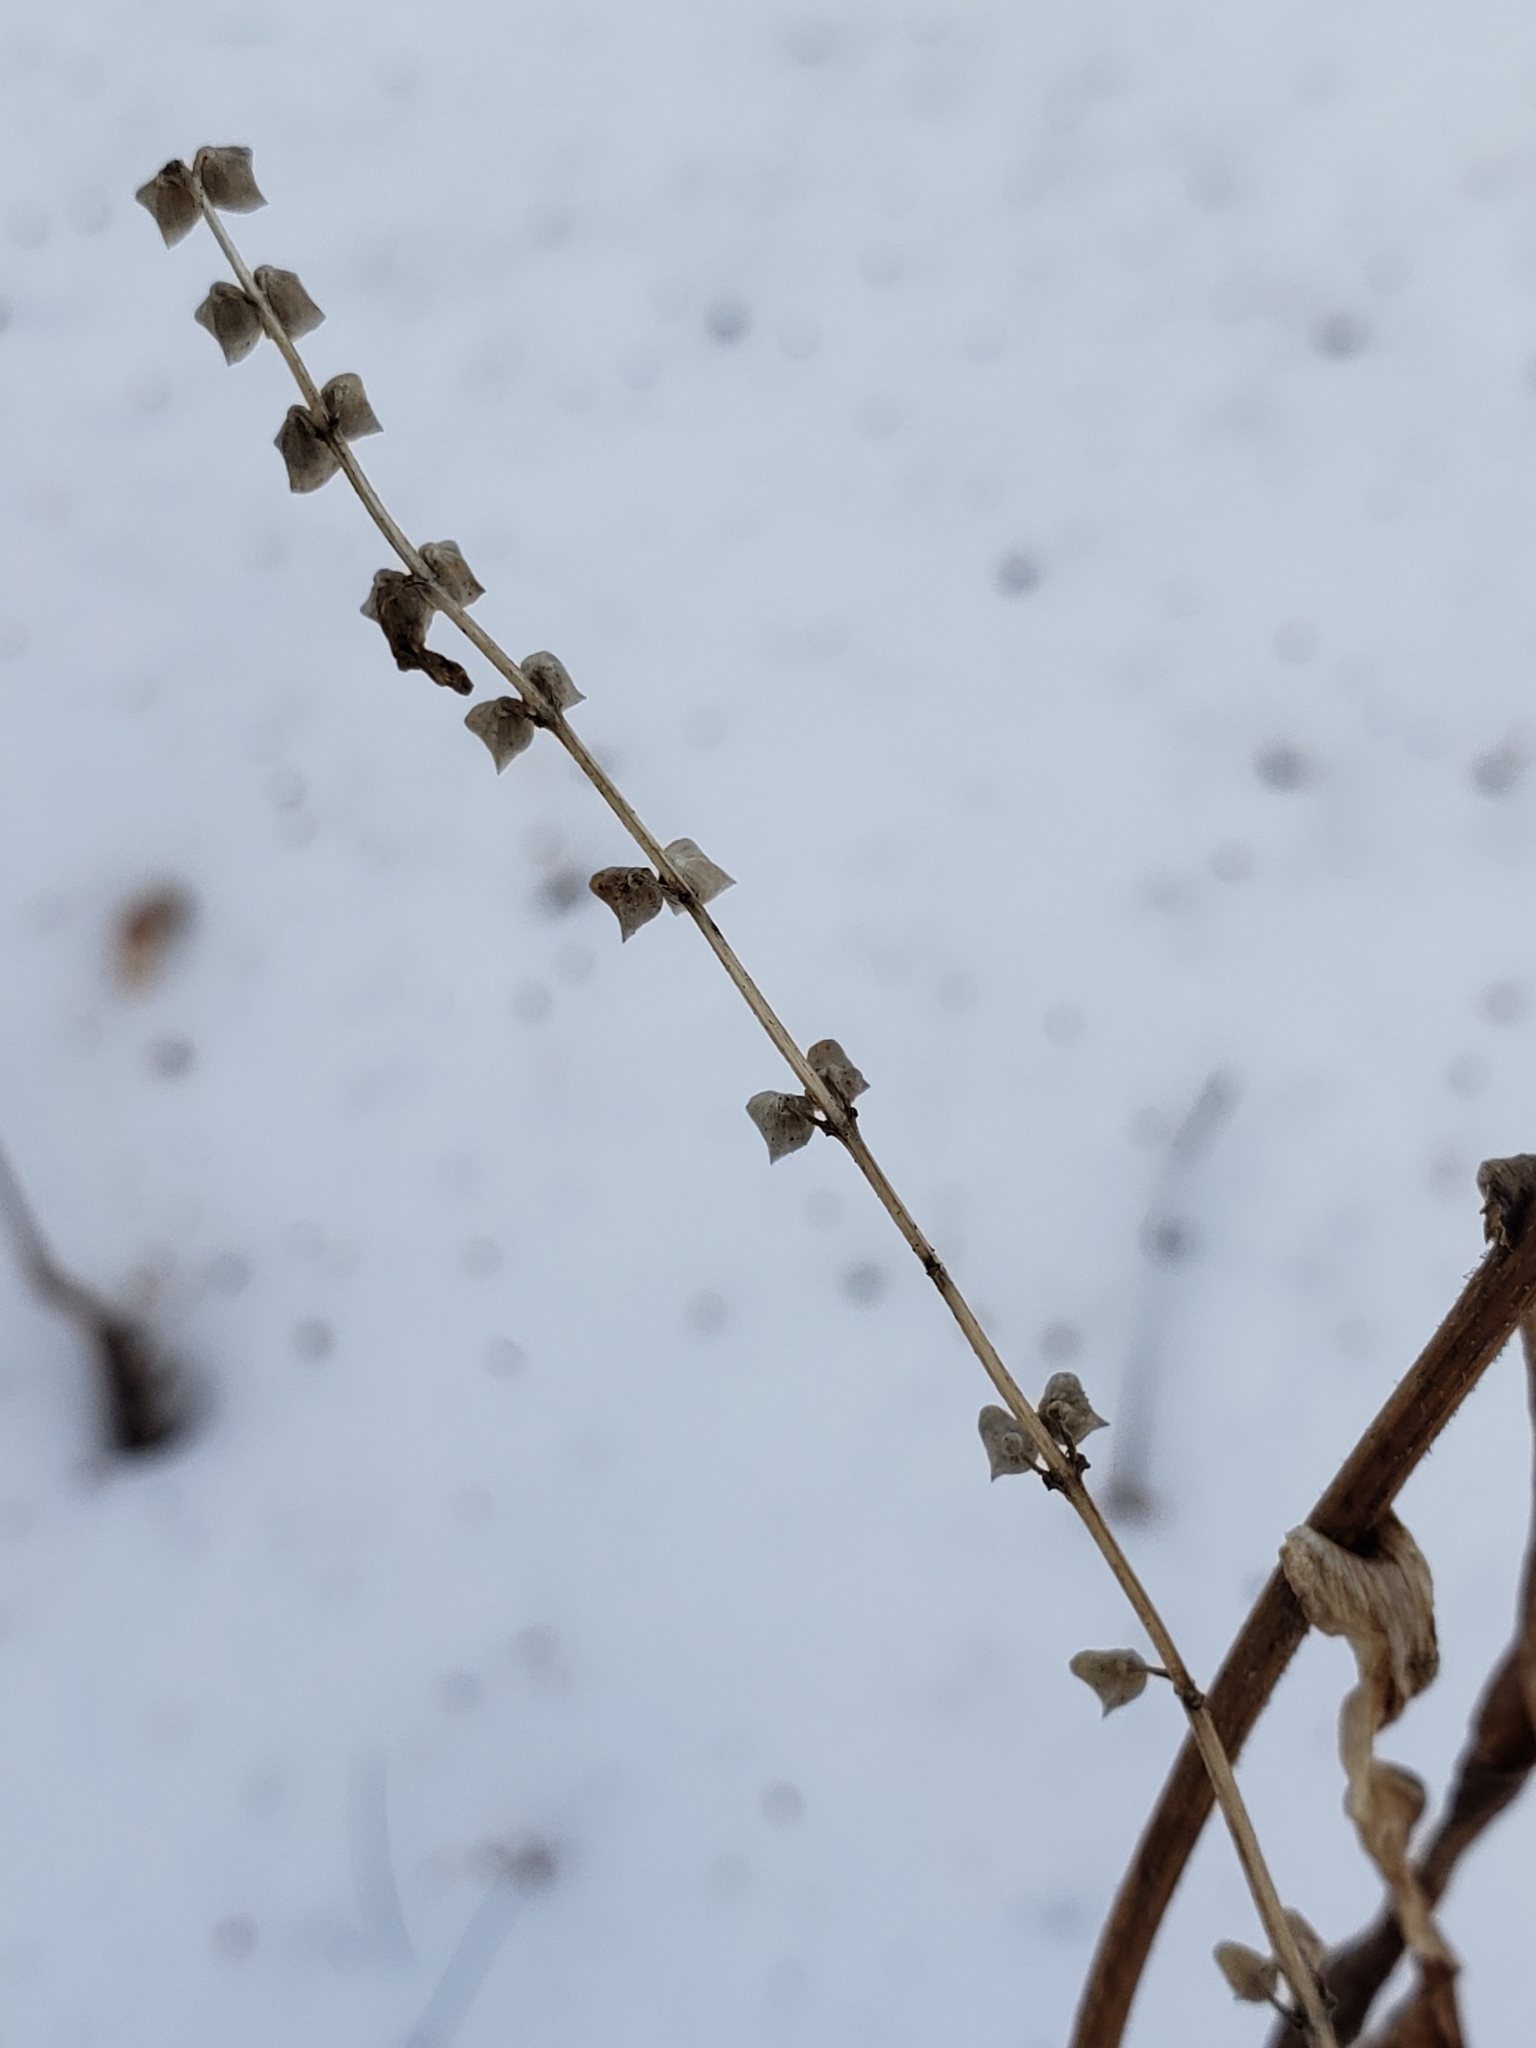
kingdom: Plantae
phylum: Tracheophyta
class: Magnoliopsida
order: Lamiales
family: Lamiaceae
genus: Scutellaria
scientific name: Scutellaria lateriflora
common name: Blue skullcap
